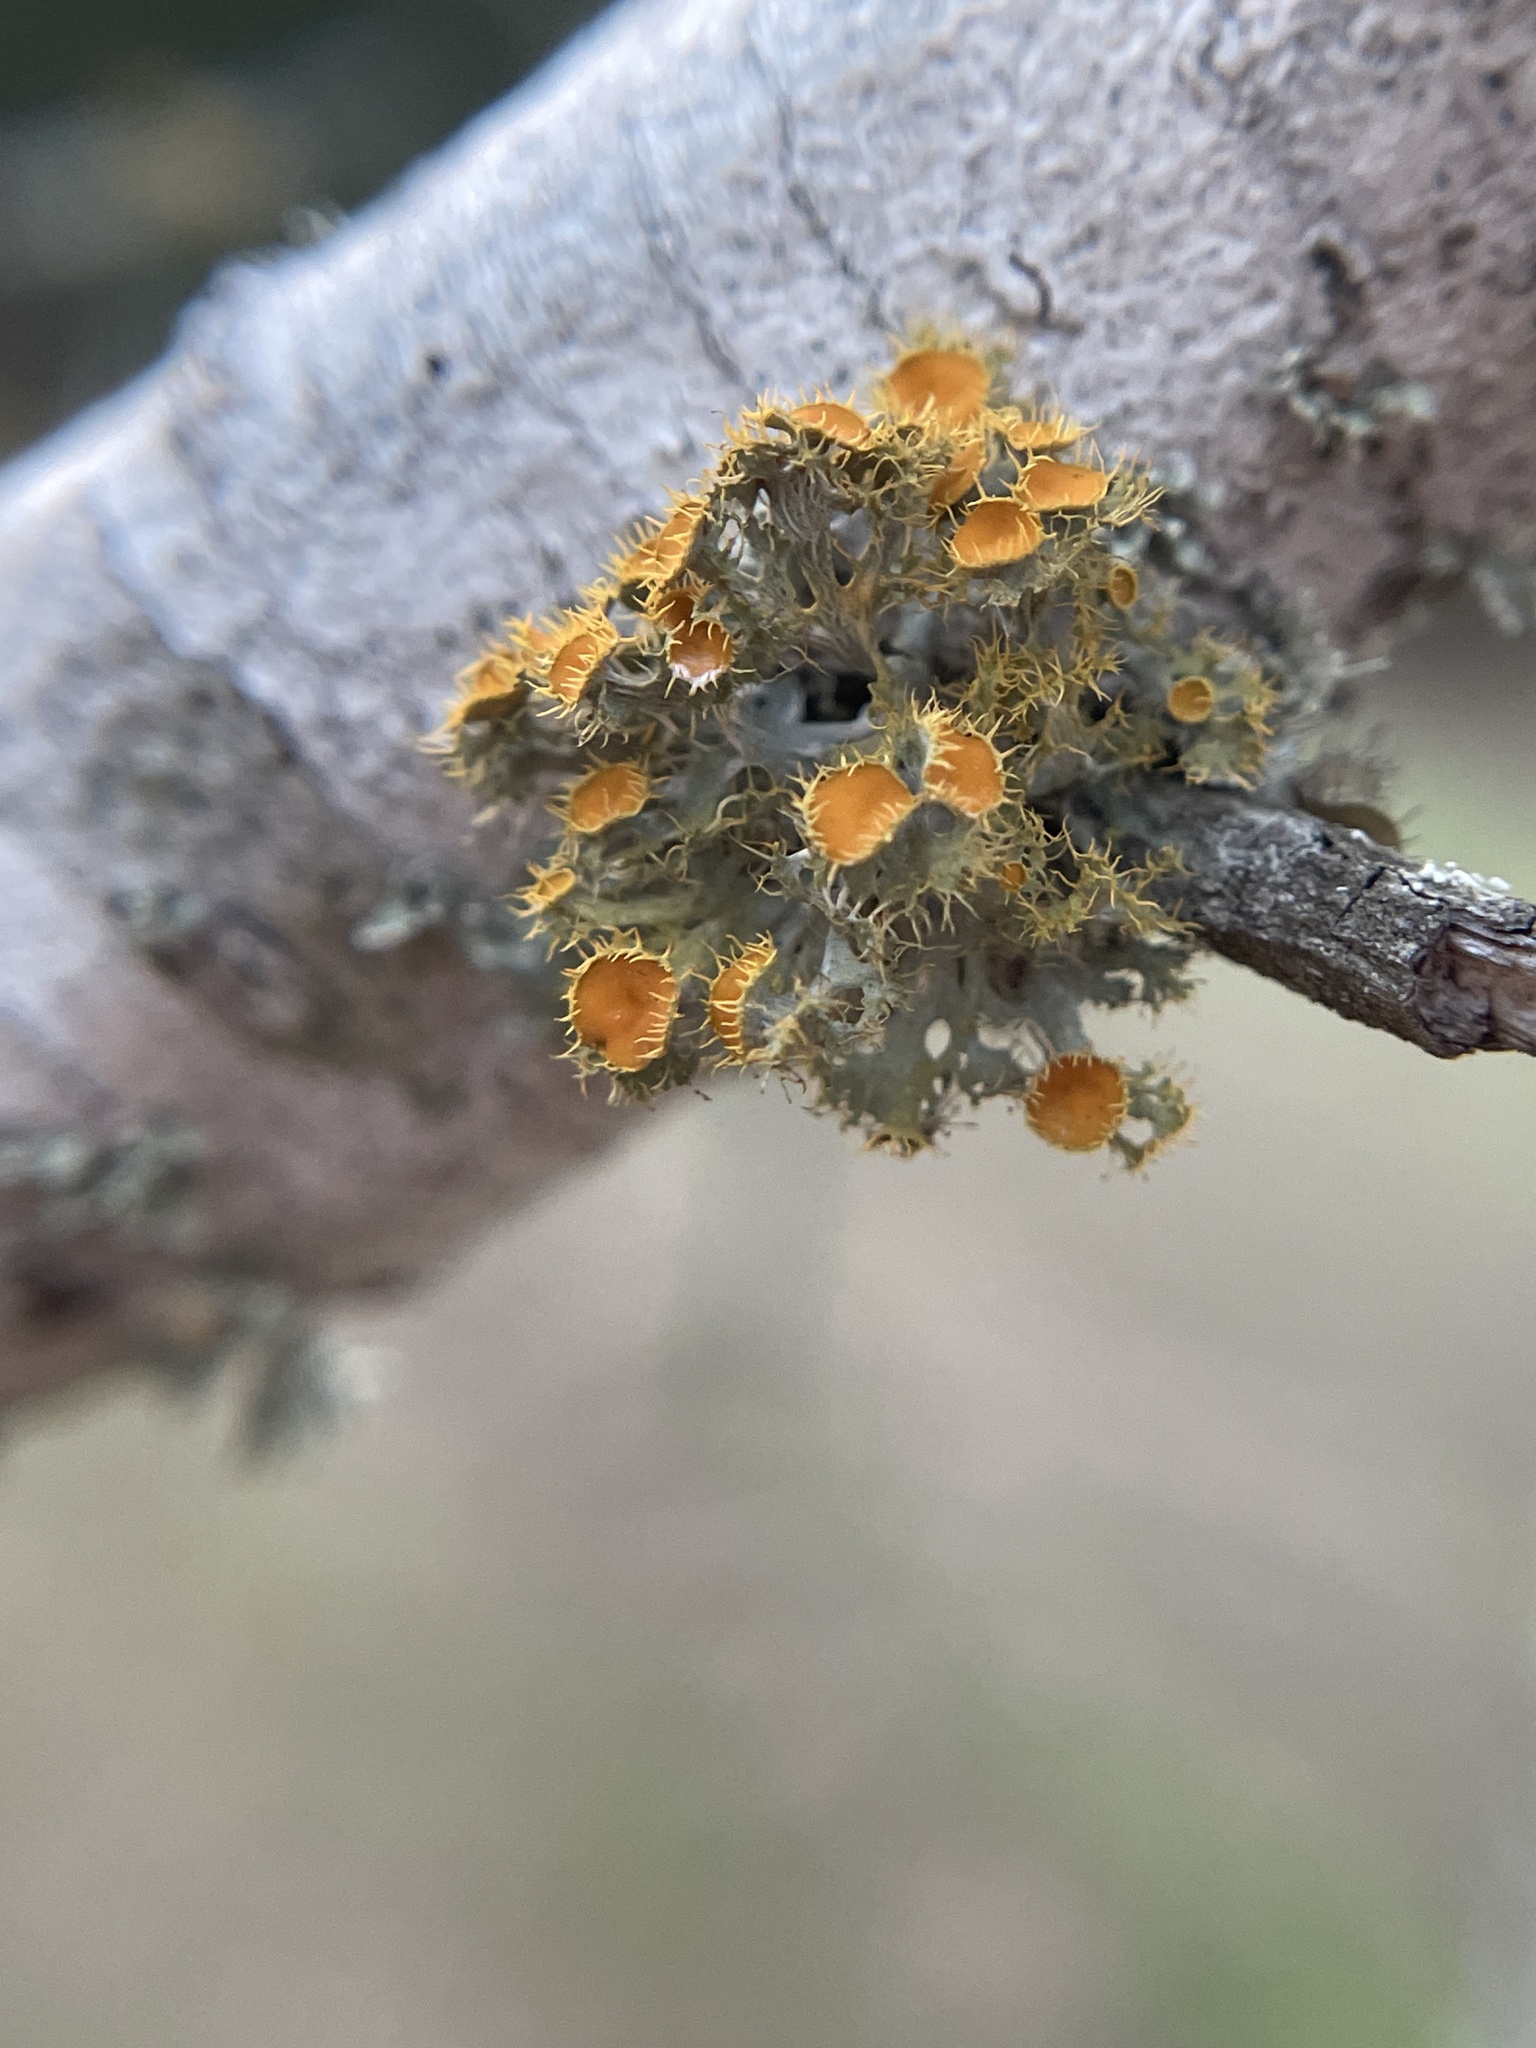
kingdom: Fungi
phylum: Ascomycota
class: Lecanoromycetes
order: Teloschistales
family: Teloschistaceae
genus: Niorma
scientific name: Niorma chrysophthalma
